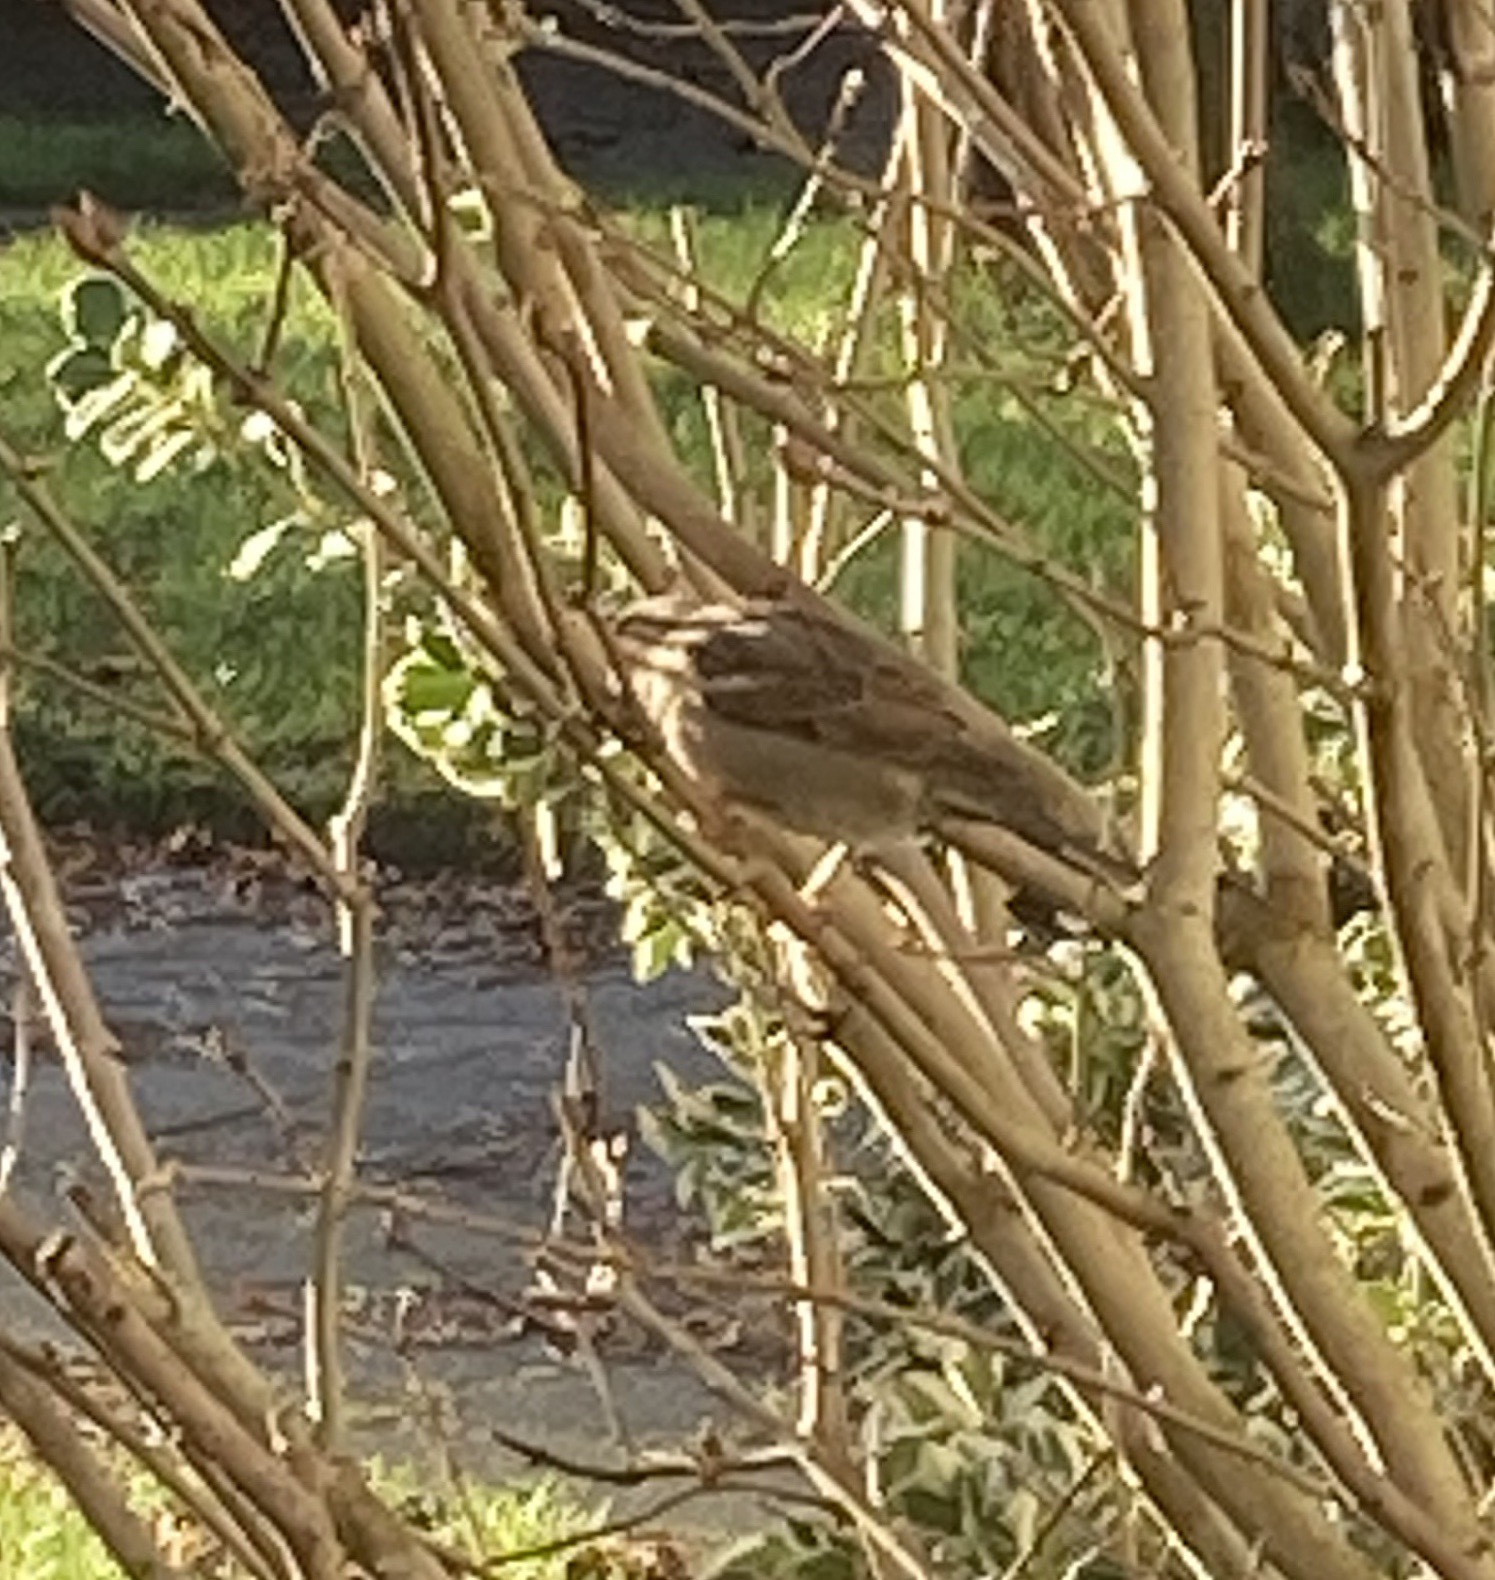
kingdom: Animalia
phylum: Chordata
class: Aves
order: Passeriformes
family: Passeridae
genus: Passer
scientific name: Passer domesticus
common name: House sparrow
